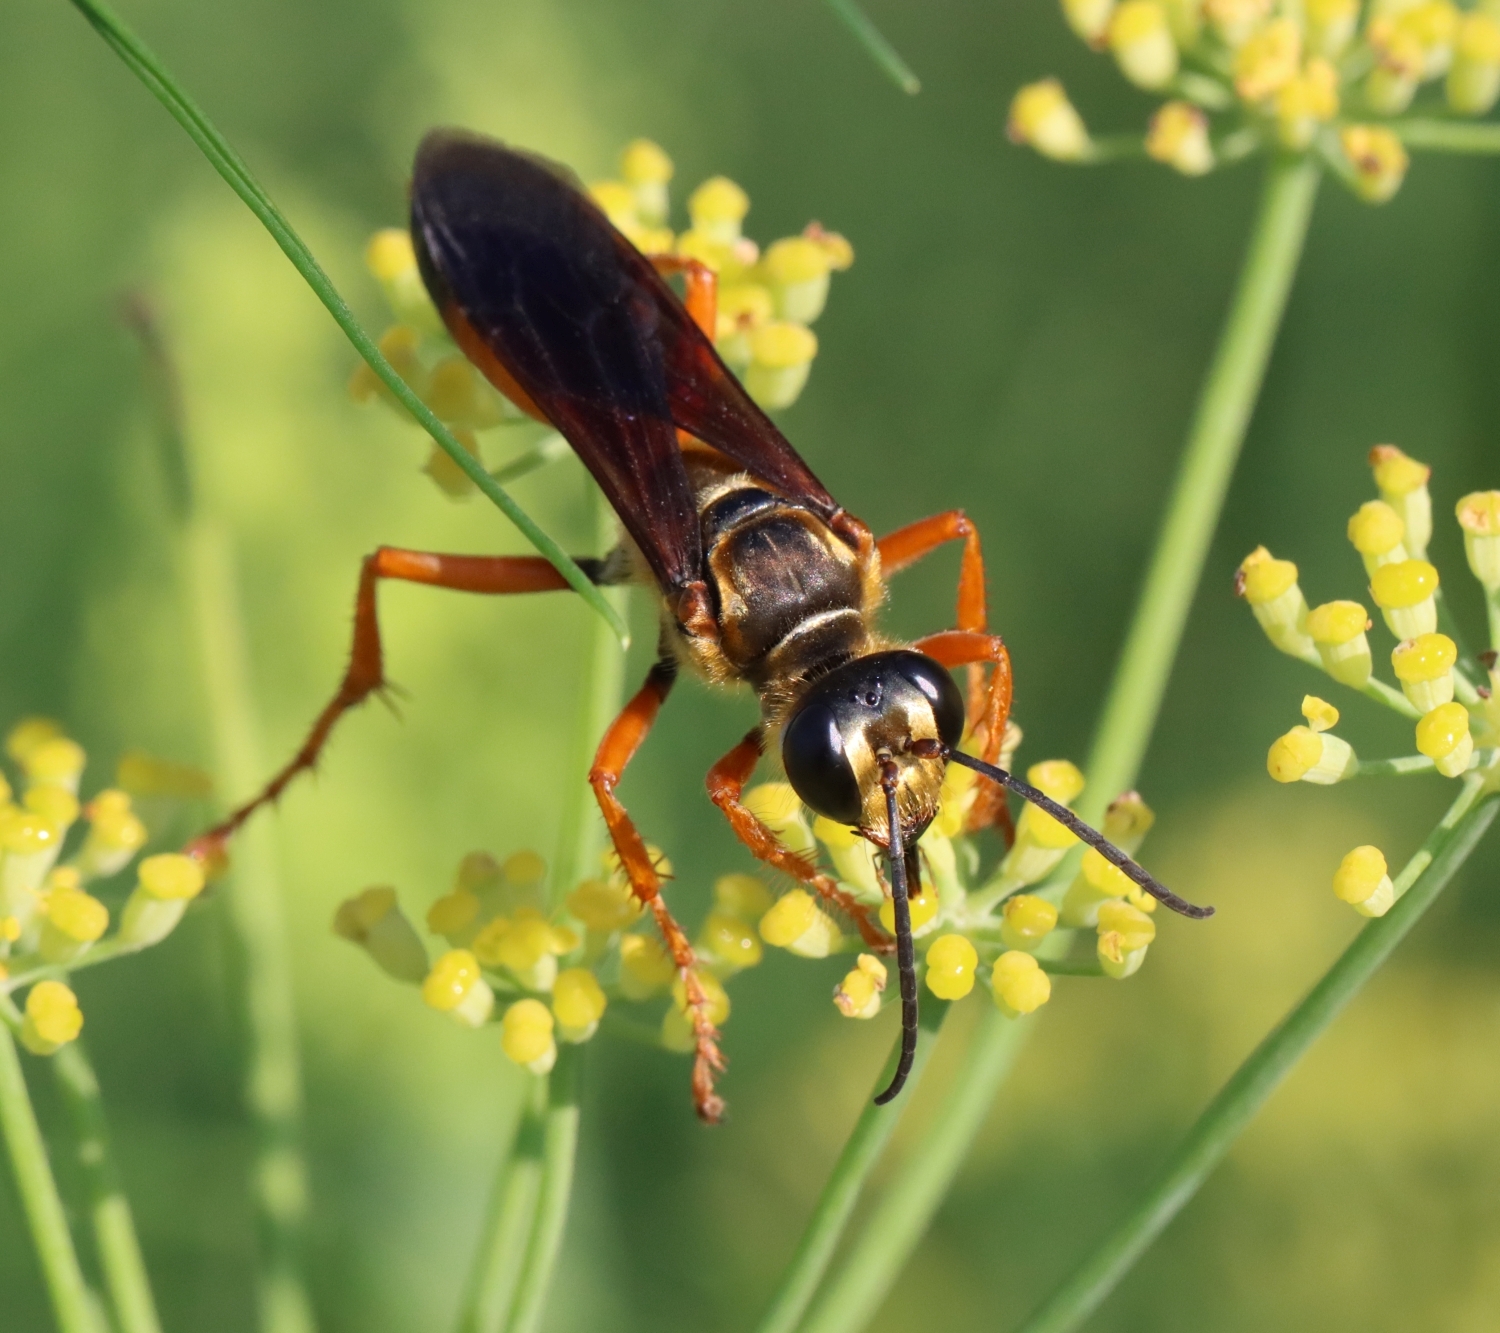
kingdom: Animalia
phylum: Arthropoda
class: Insecta
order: Hymenoptera
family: Sphecidae
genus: Sphex
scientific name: Sphex ichneumoneus
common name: Great golden digger wasp
